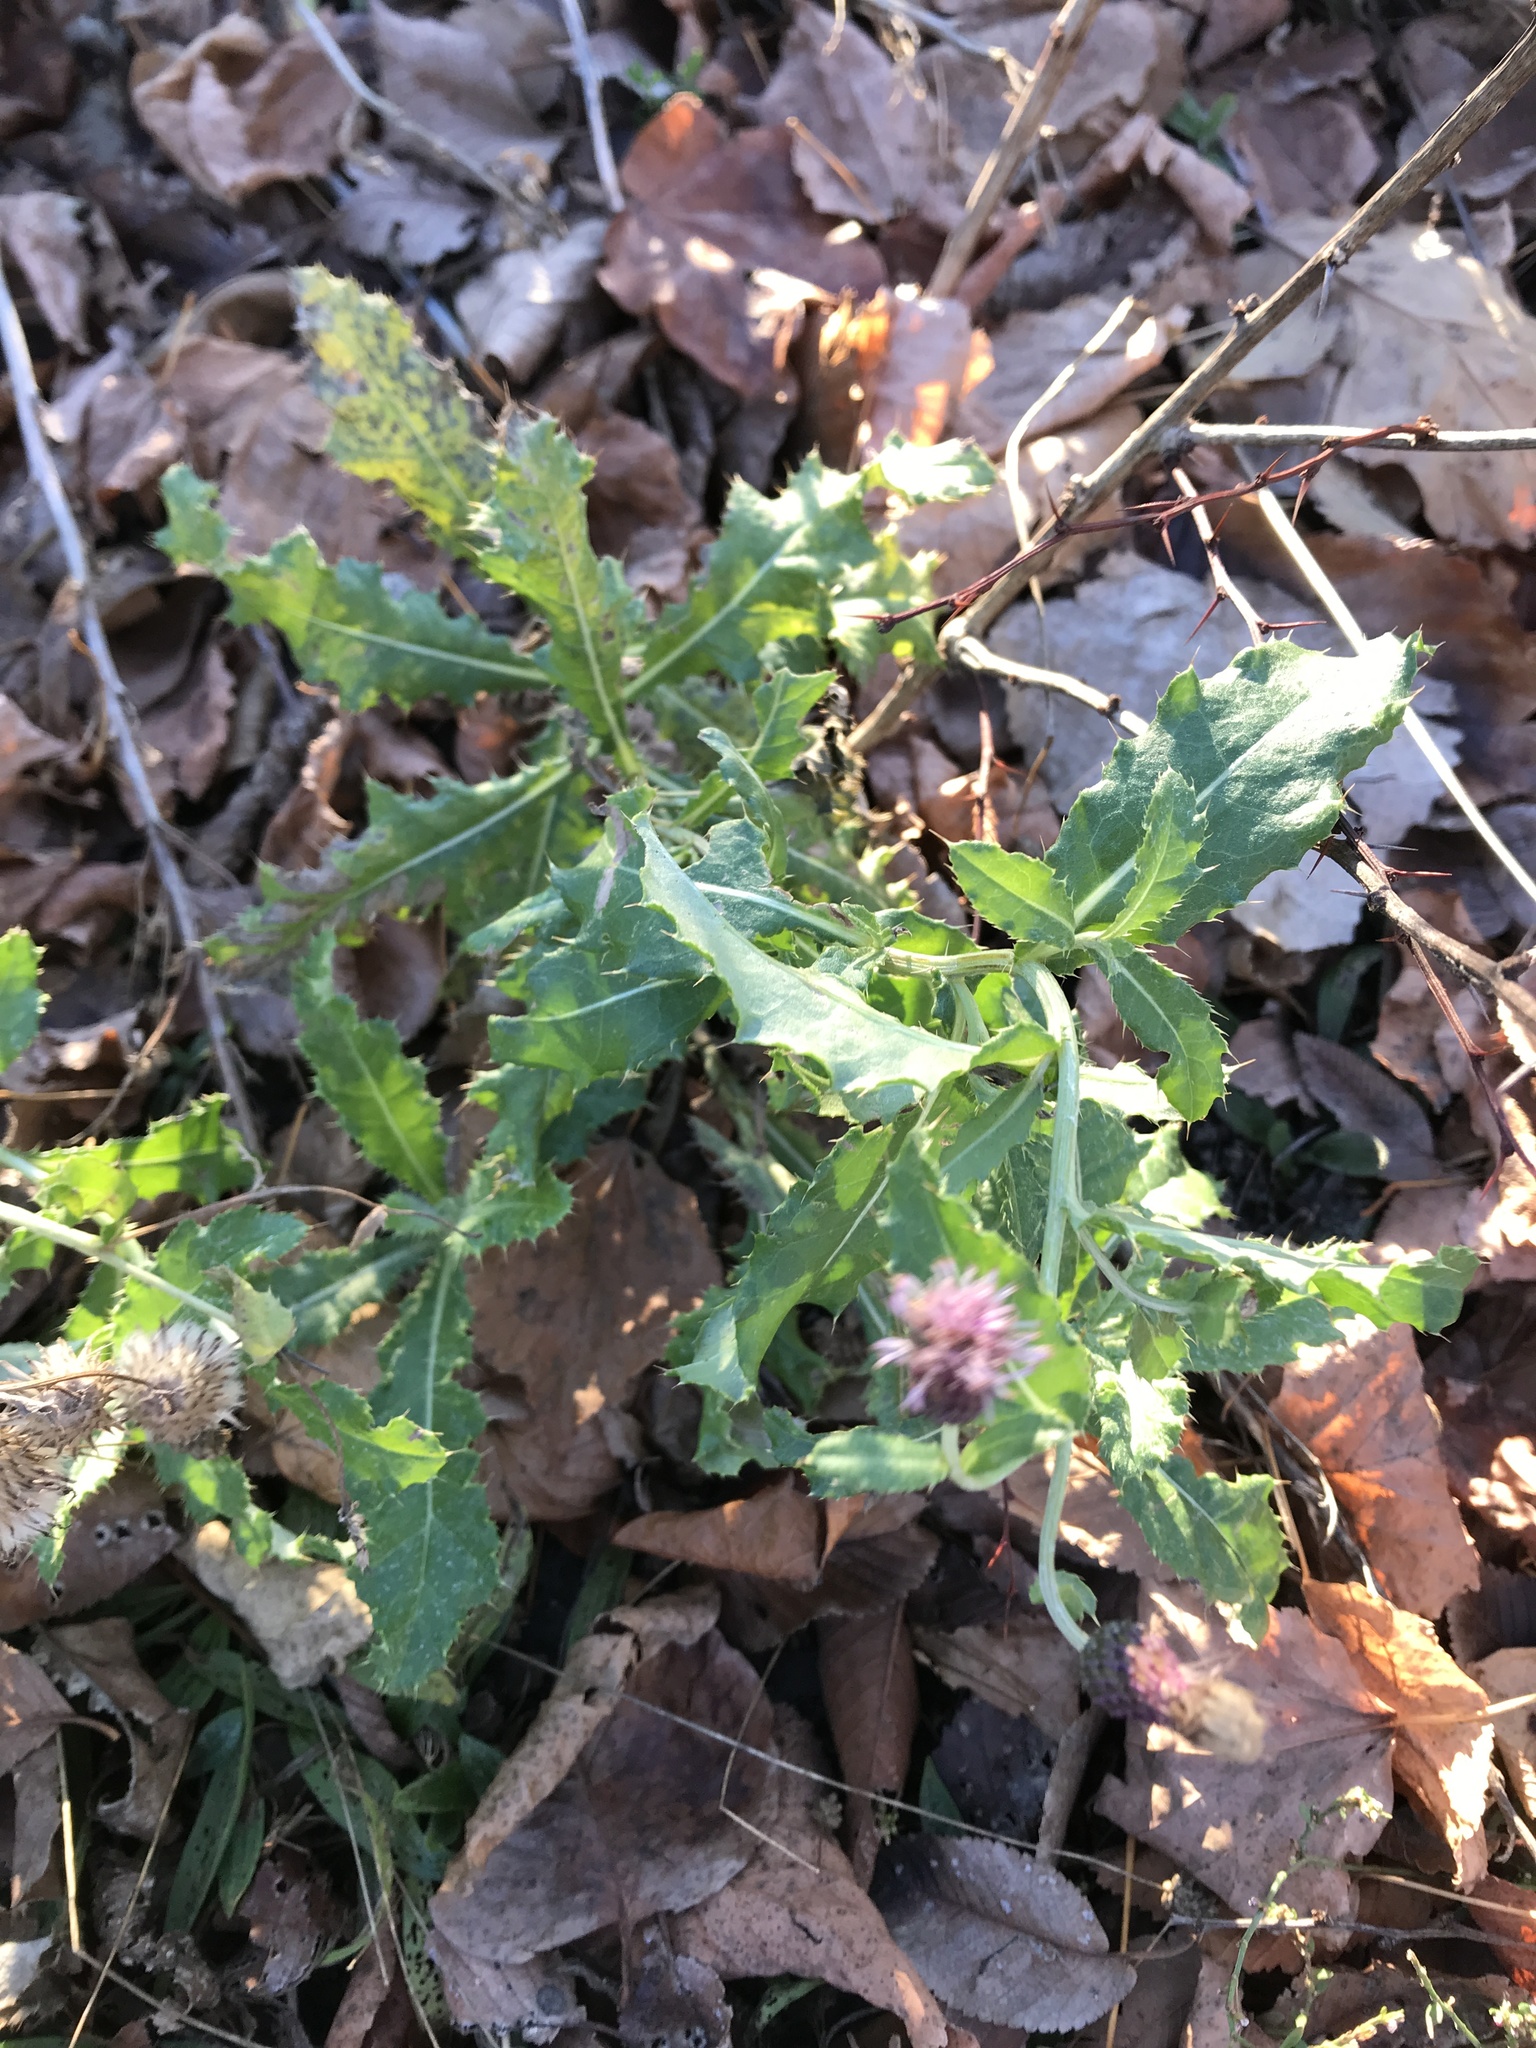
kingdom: Plantae
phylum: Tracheophyta
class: Magnoliopsida
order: Asterales
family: Asteraceae
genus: Cirsium
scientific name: Cirsium arvense
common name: Creeping thistle
